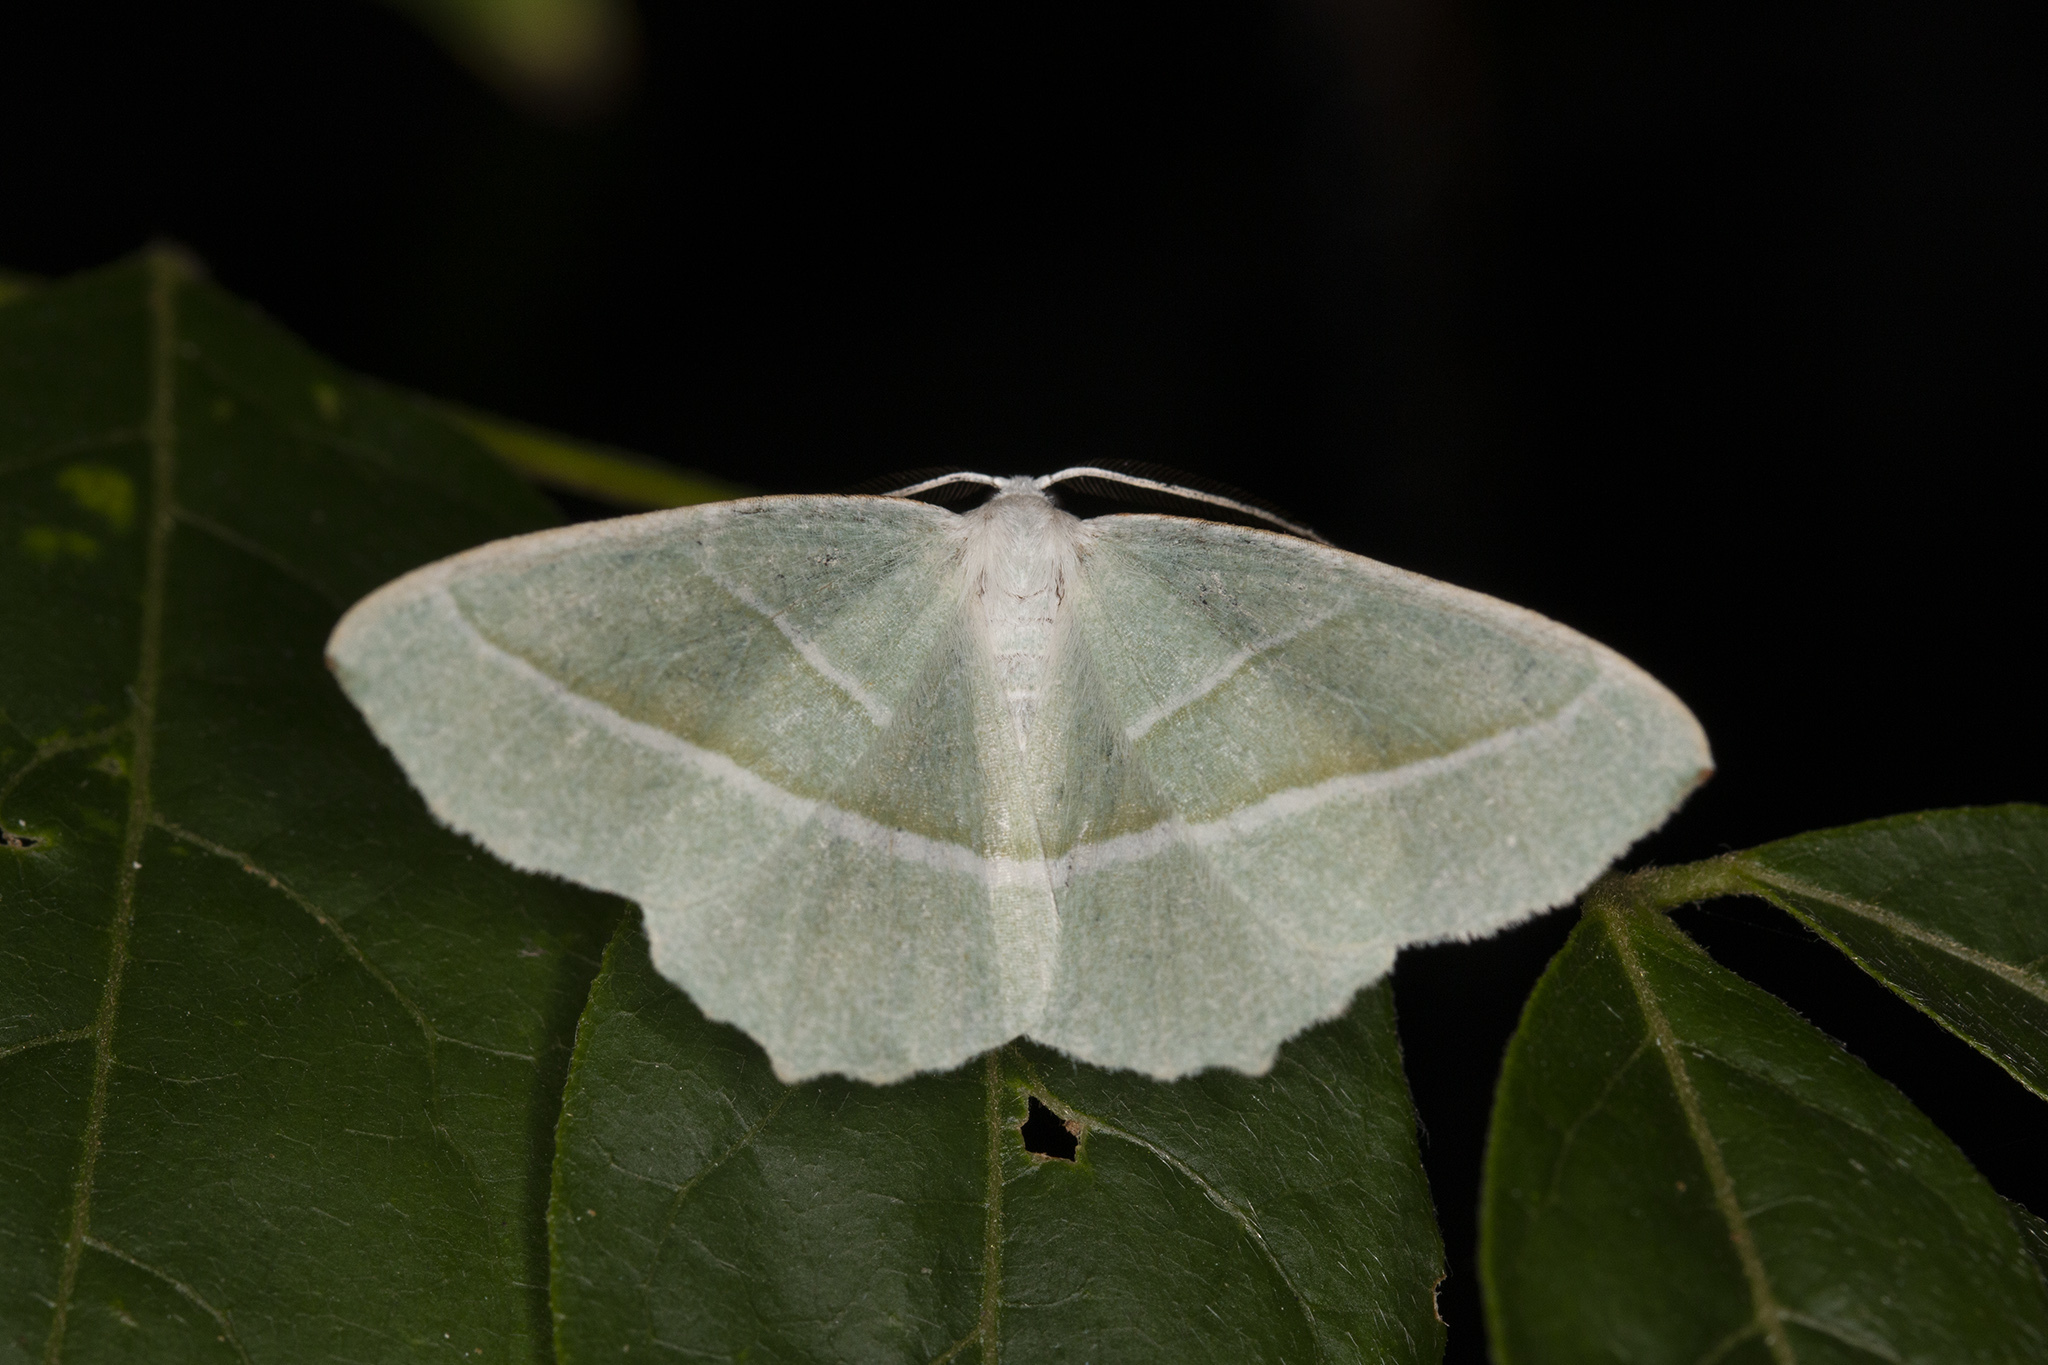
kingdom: Animalia
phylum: Arthropoda
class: Insecta
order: Lepidoptera
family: Geometridae
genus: Campaea
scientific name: Campaea margaritaria
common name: Light emerald
